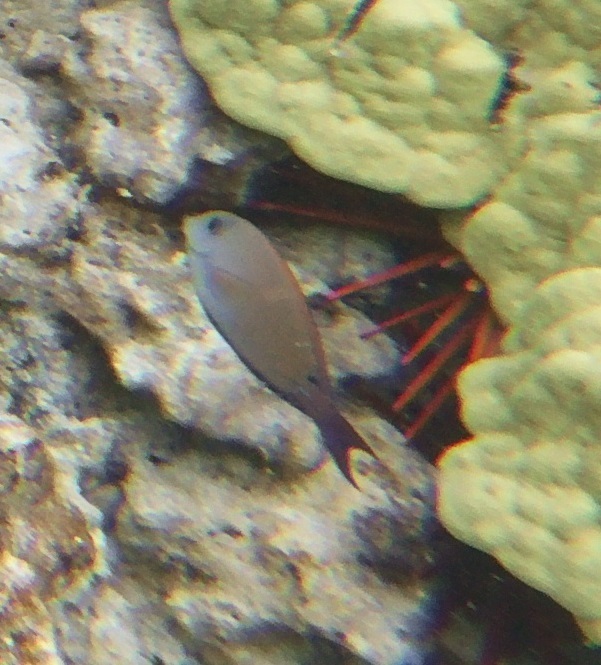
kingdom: Animalia
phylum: Chordata
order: Perciformes
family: Acanthuridae
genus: Acanthurus
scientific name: Acanthurus nigrofuscus
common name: Blackspot surgeonfish
